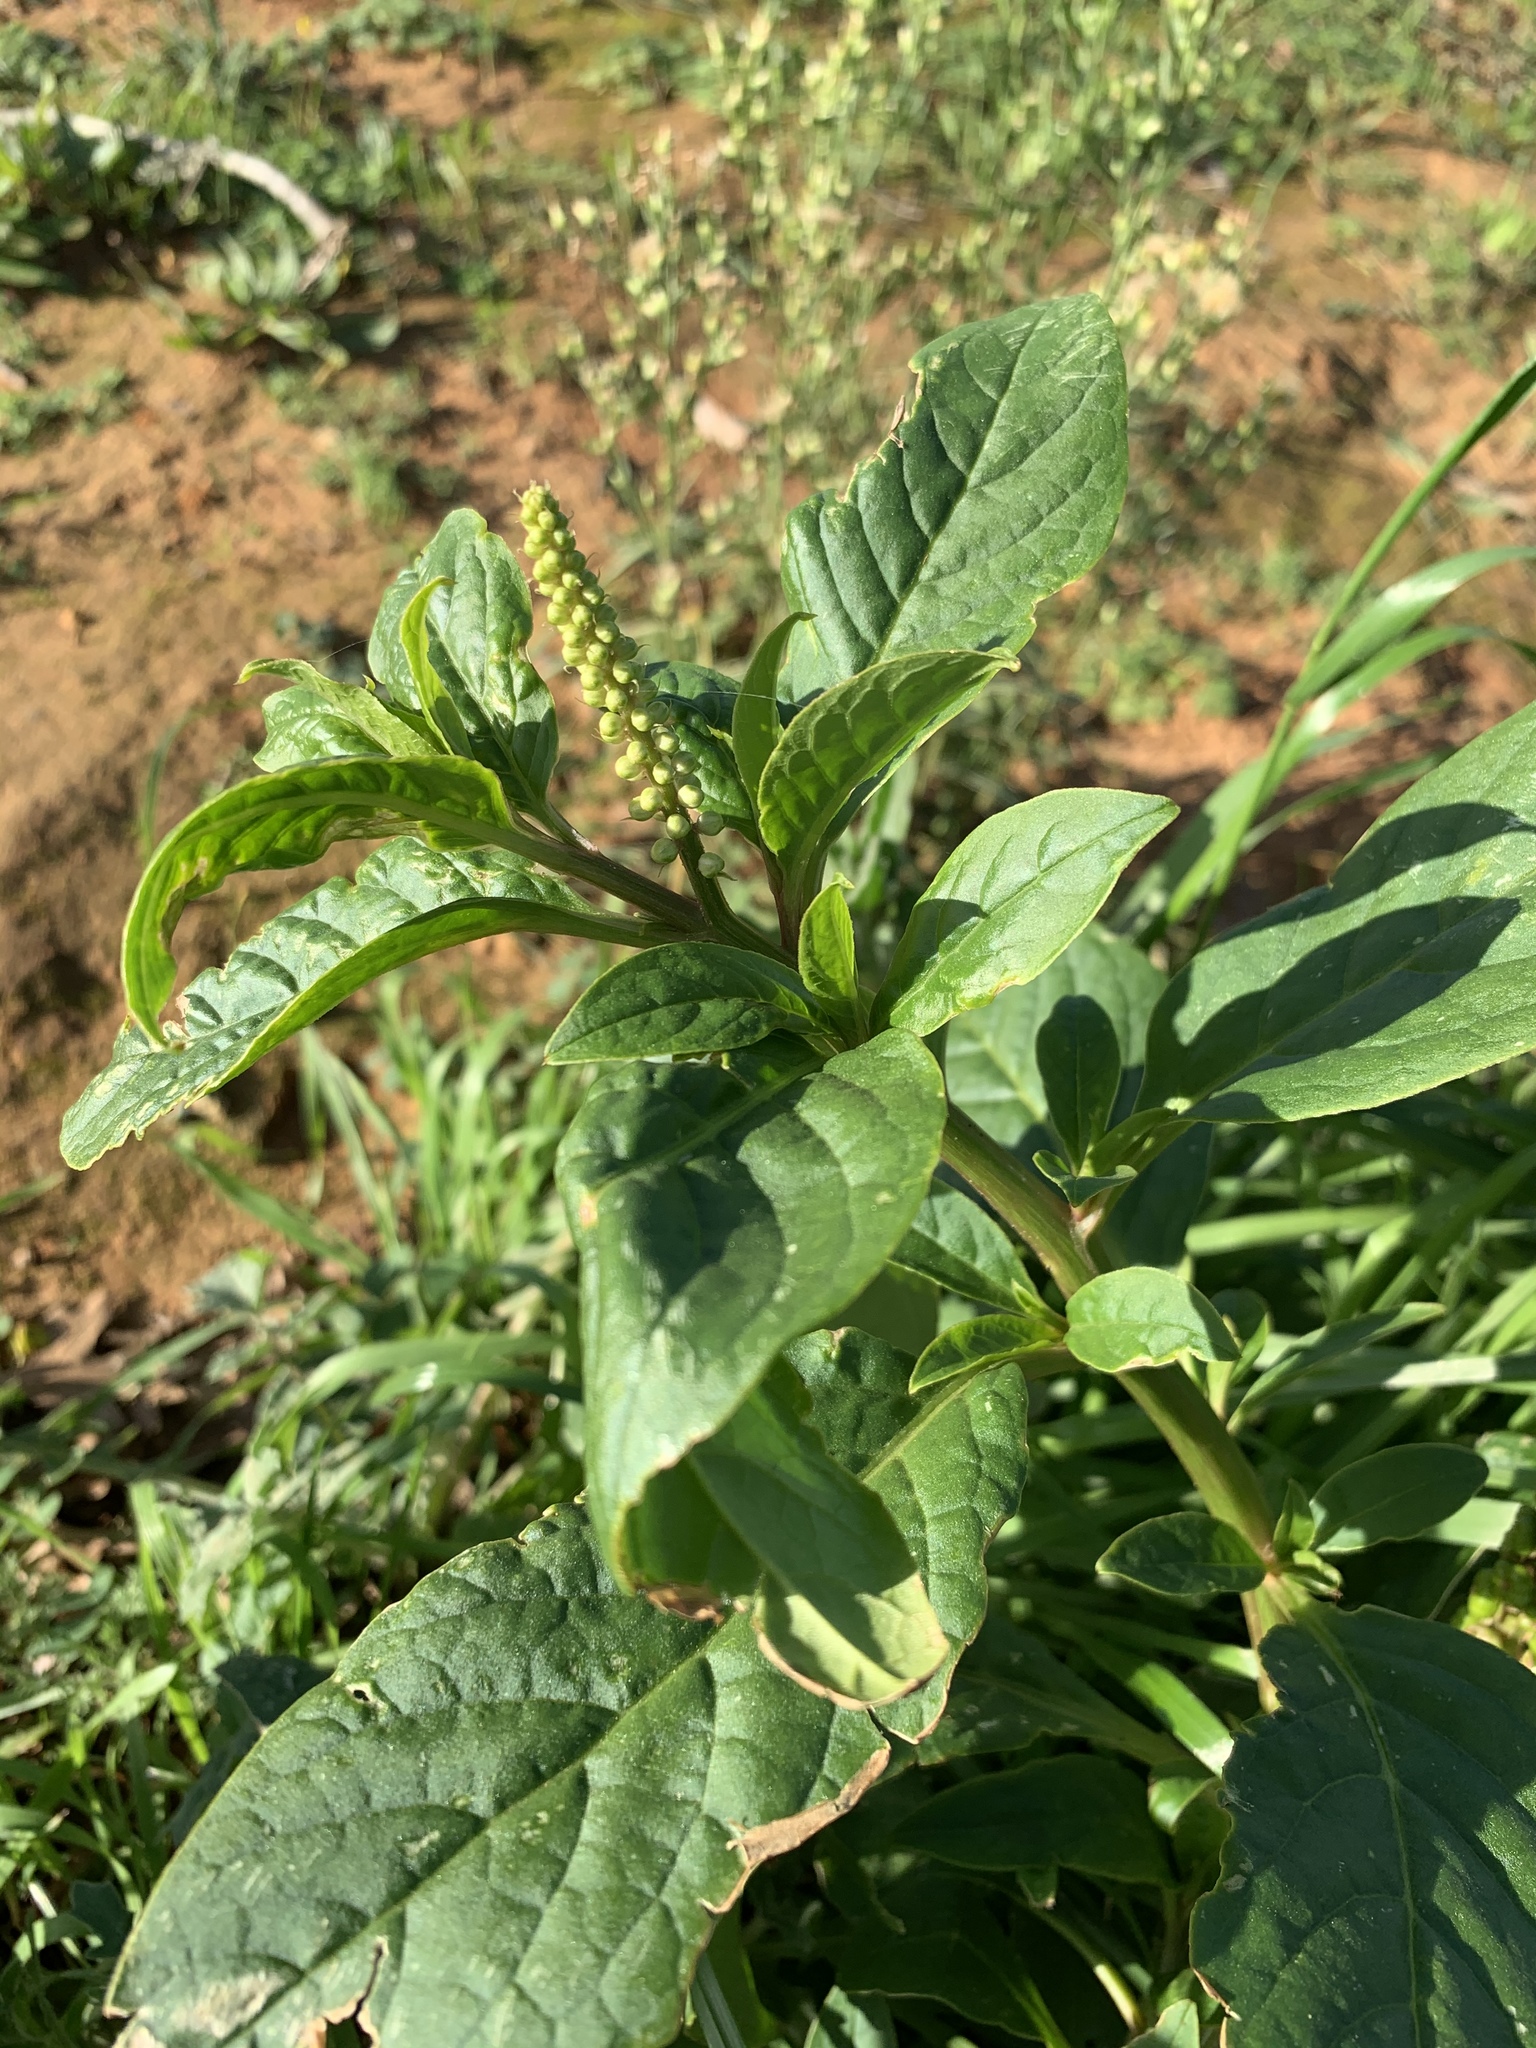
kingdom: Plantae
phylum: Tracheophyta
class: Magnoliopsida
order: Caryophyllales
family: Phytolaccaceae
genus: Phytolacca
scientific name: Phytolacca icosandra
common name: Button pokeweed
